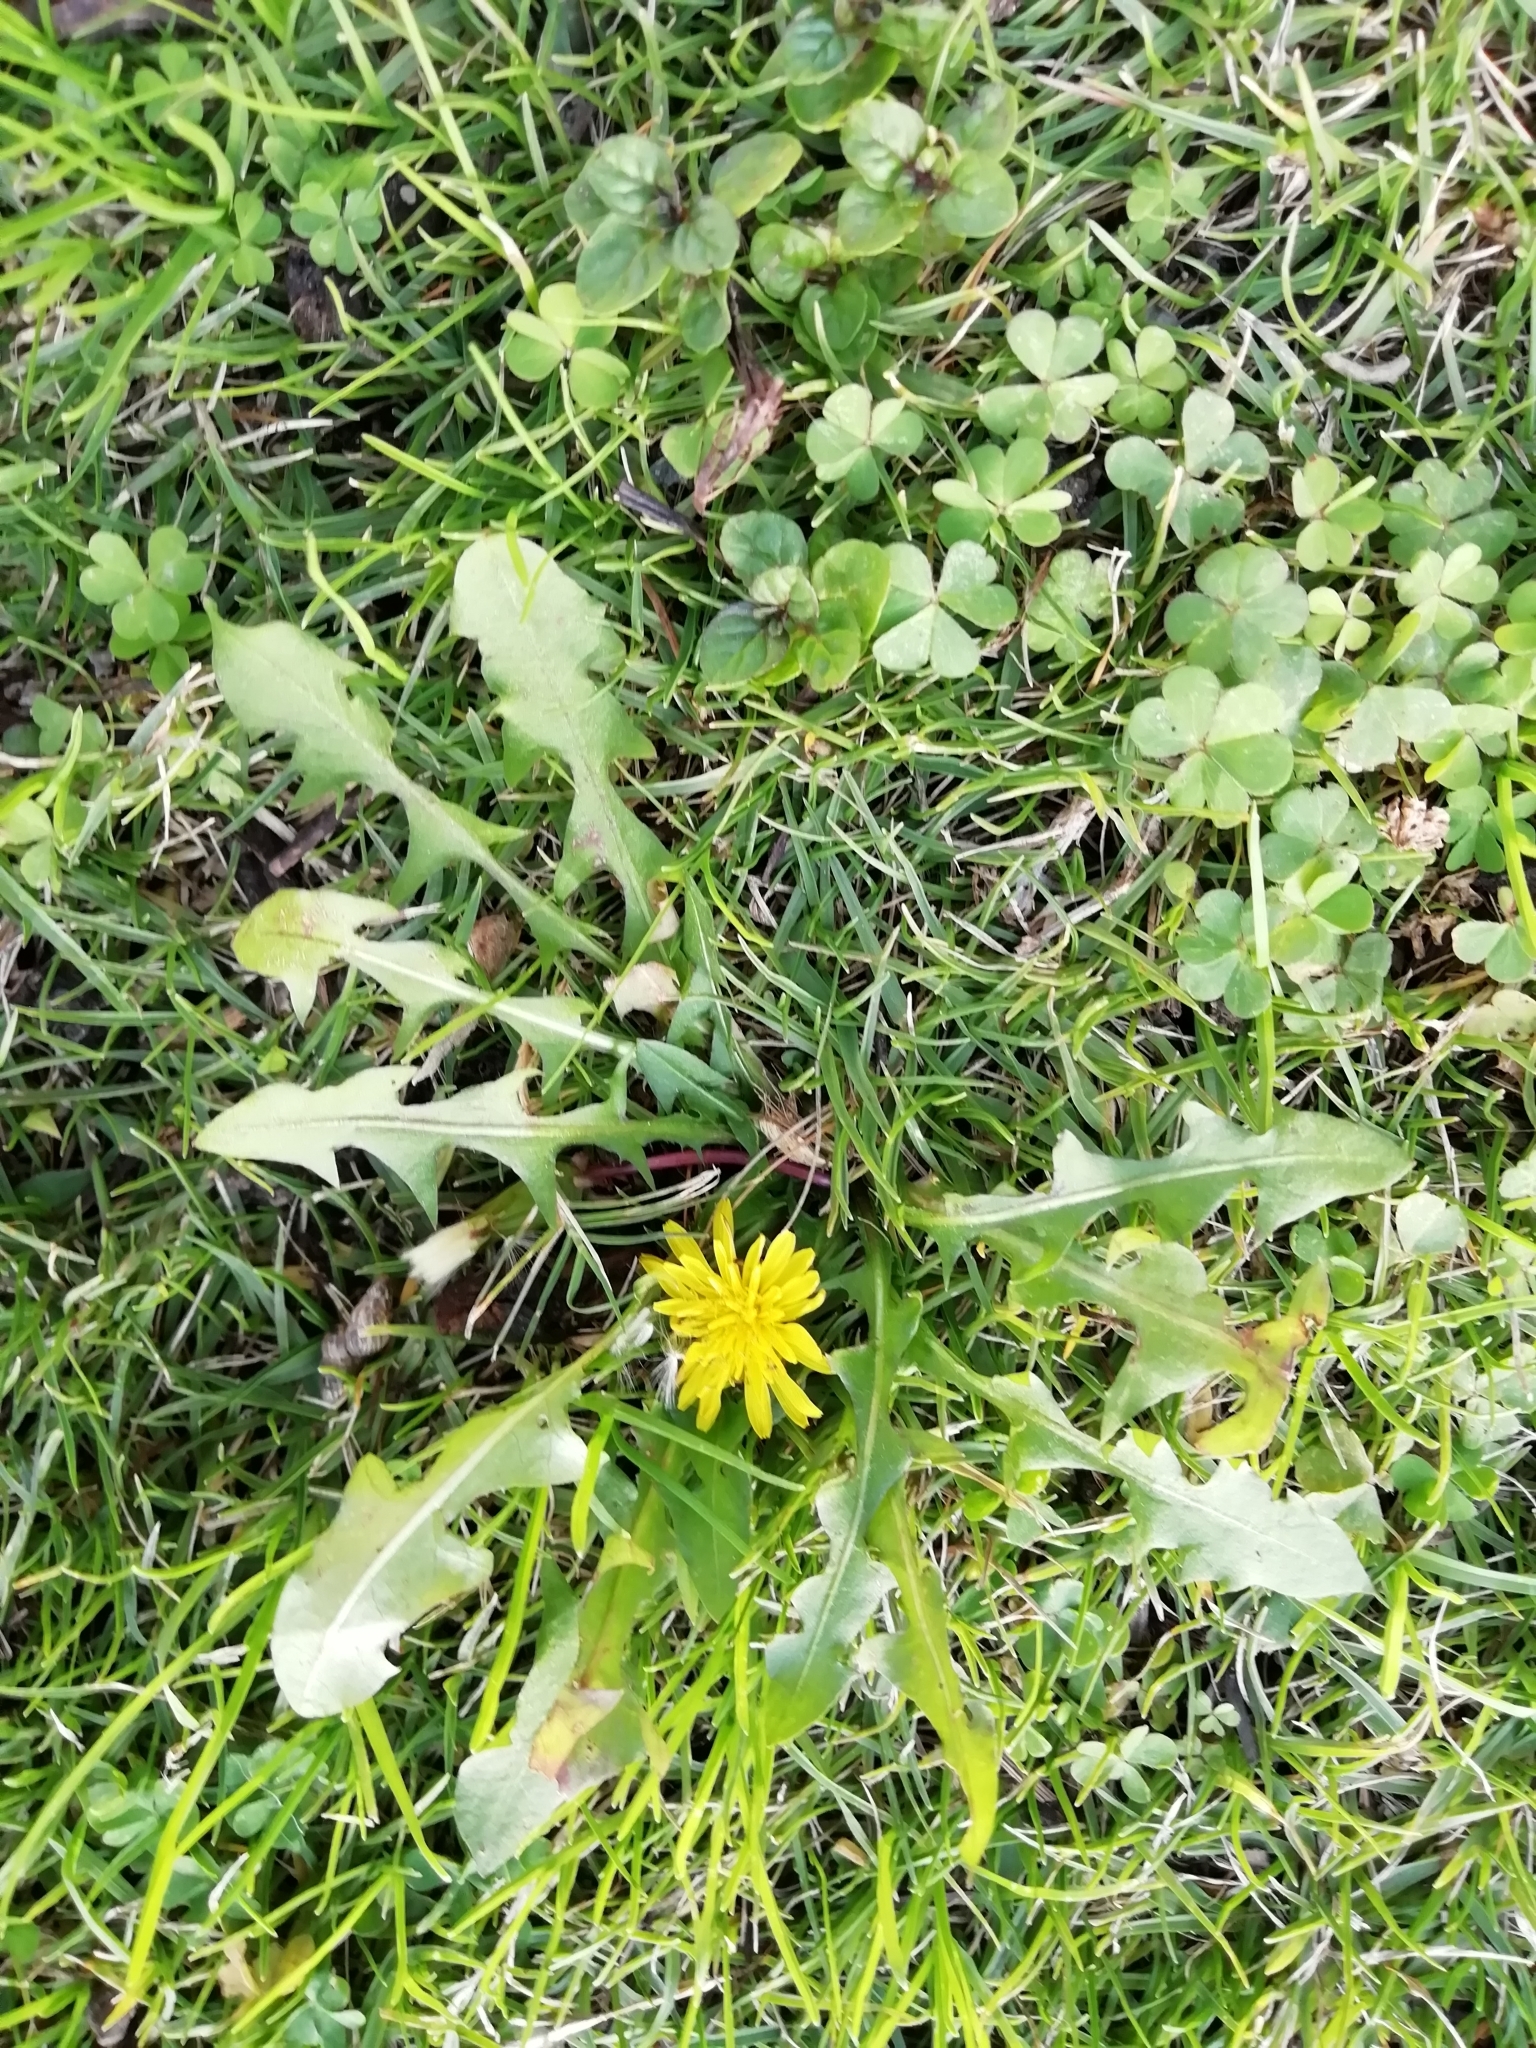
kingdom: Plantae
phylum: Tracheophyta
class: Magnoliopsida
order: Asterales
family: Asteraceae
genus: Taraxacum
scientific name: Taraxacum
